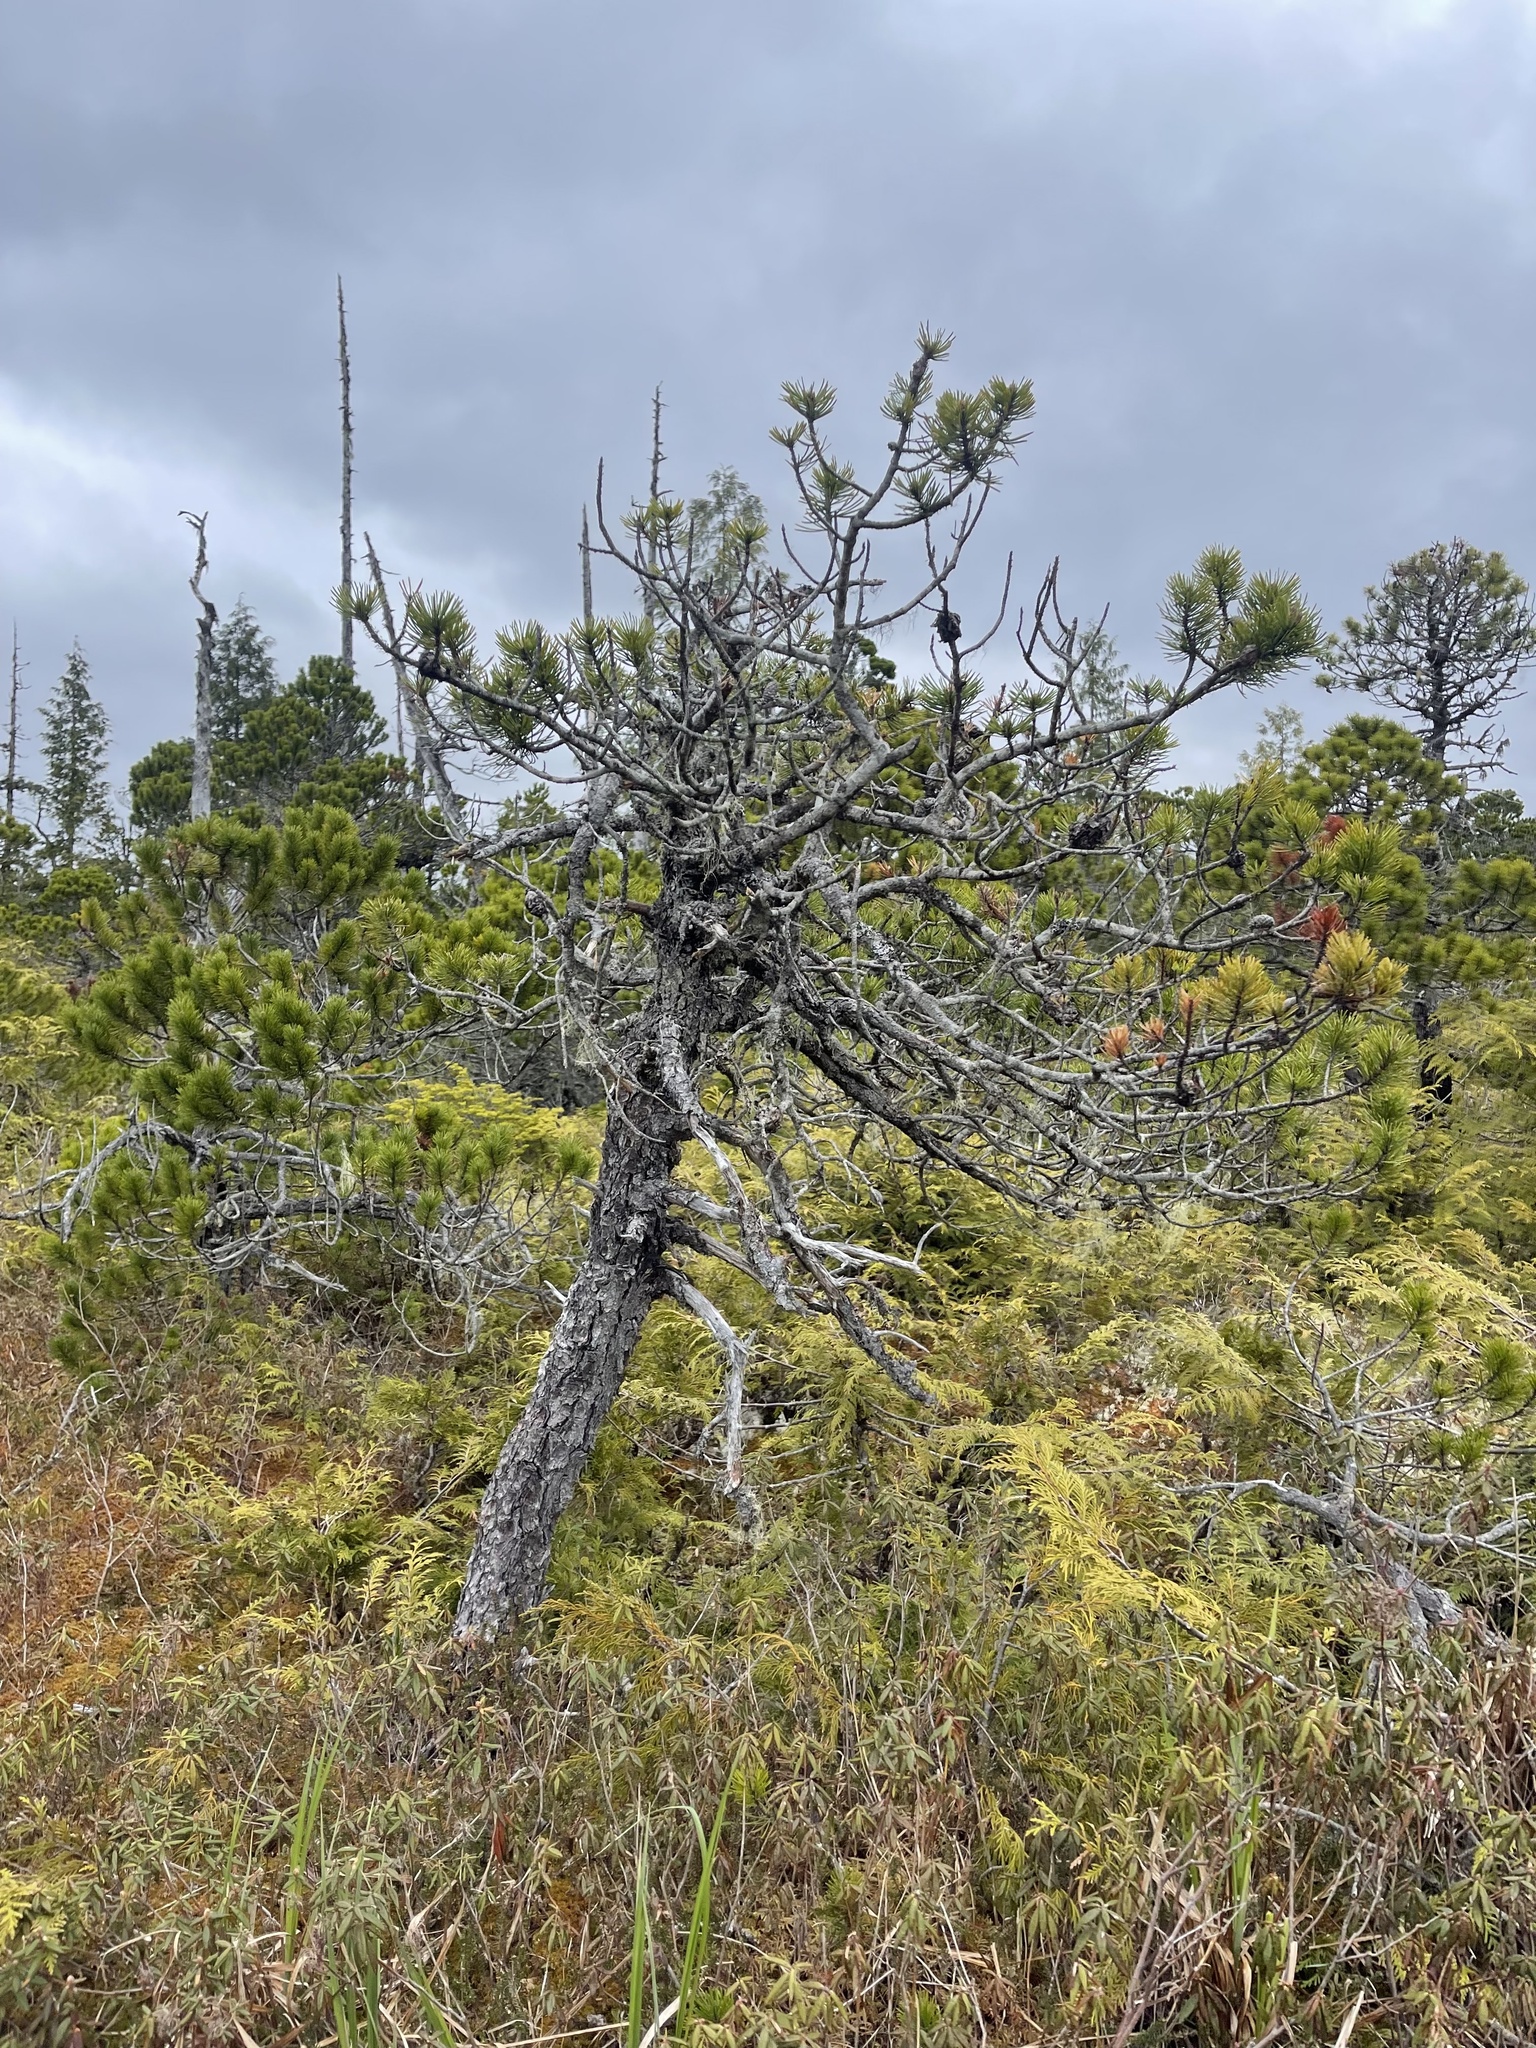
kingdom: Plantae
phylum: Tracheophyta
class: Pinopsida
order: Pinales
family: Pinaceae
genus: Pinus
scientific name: Pinus contorta
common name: Lodgepole pine
